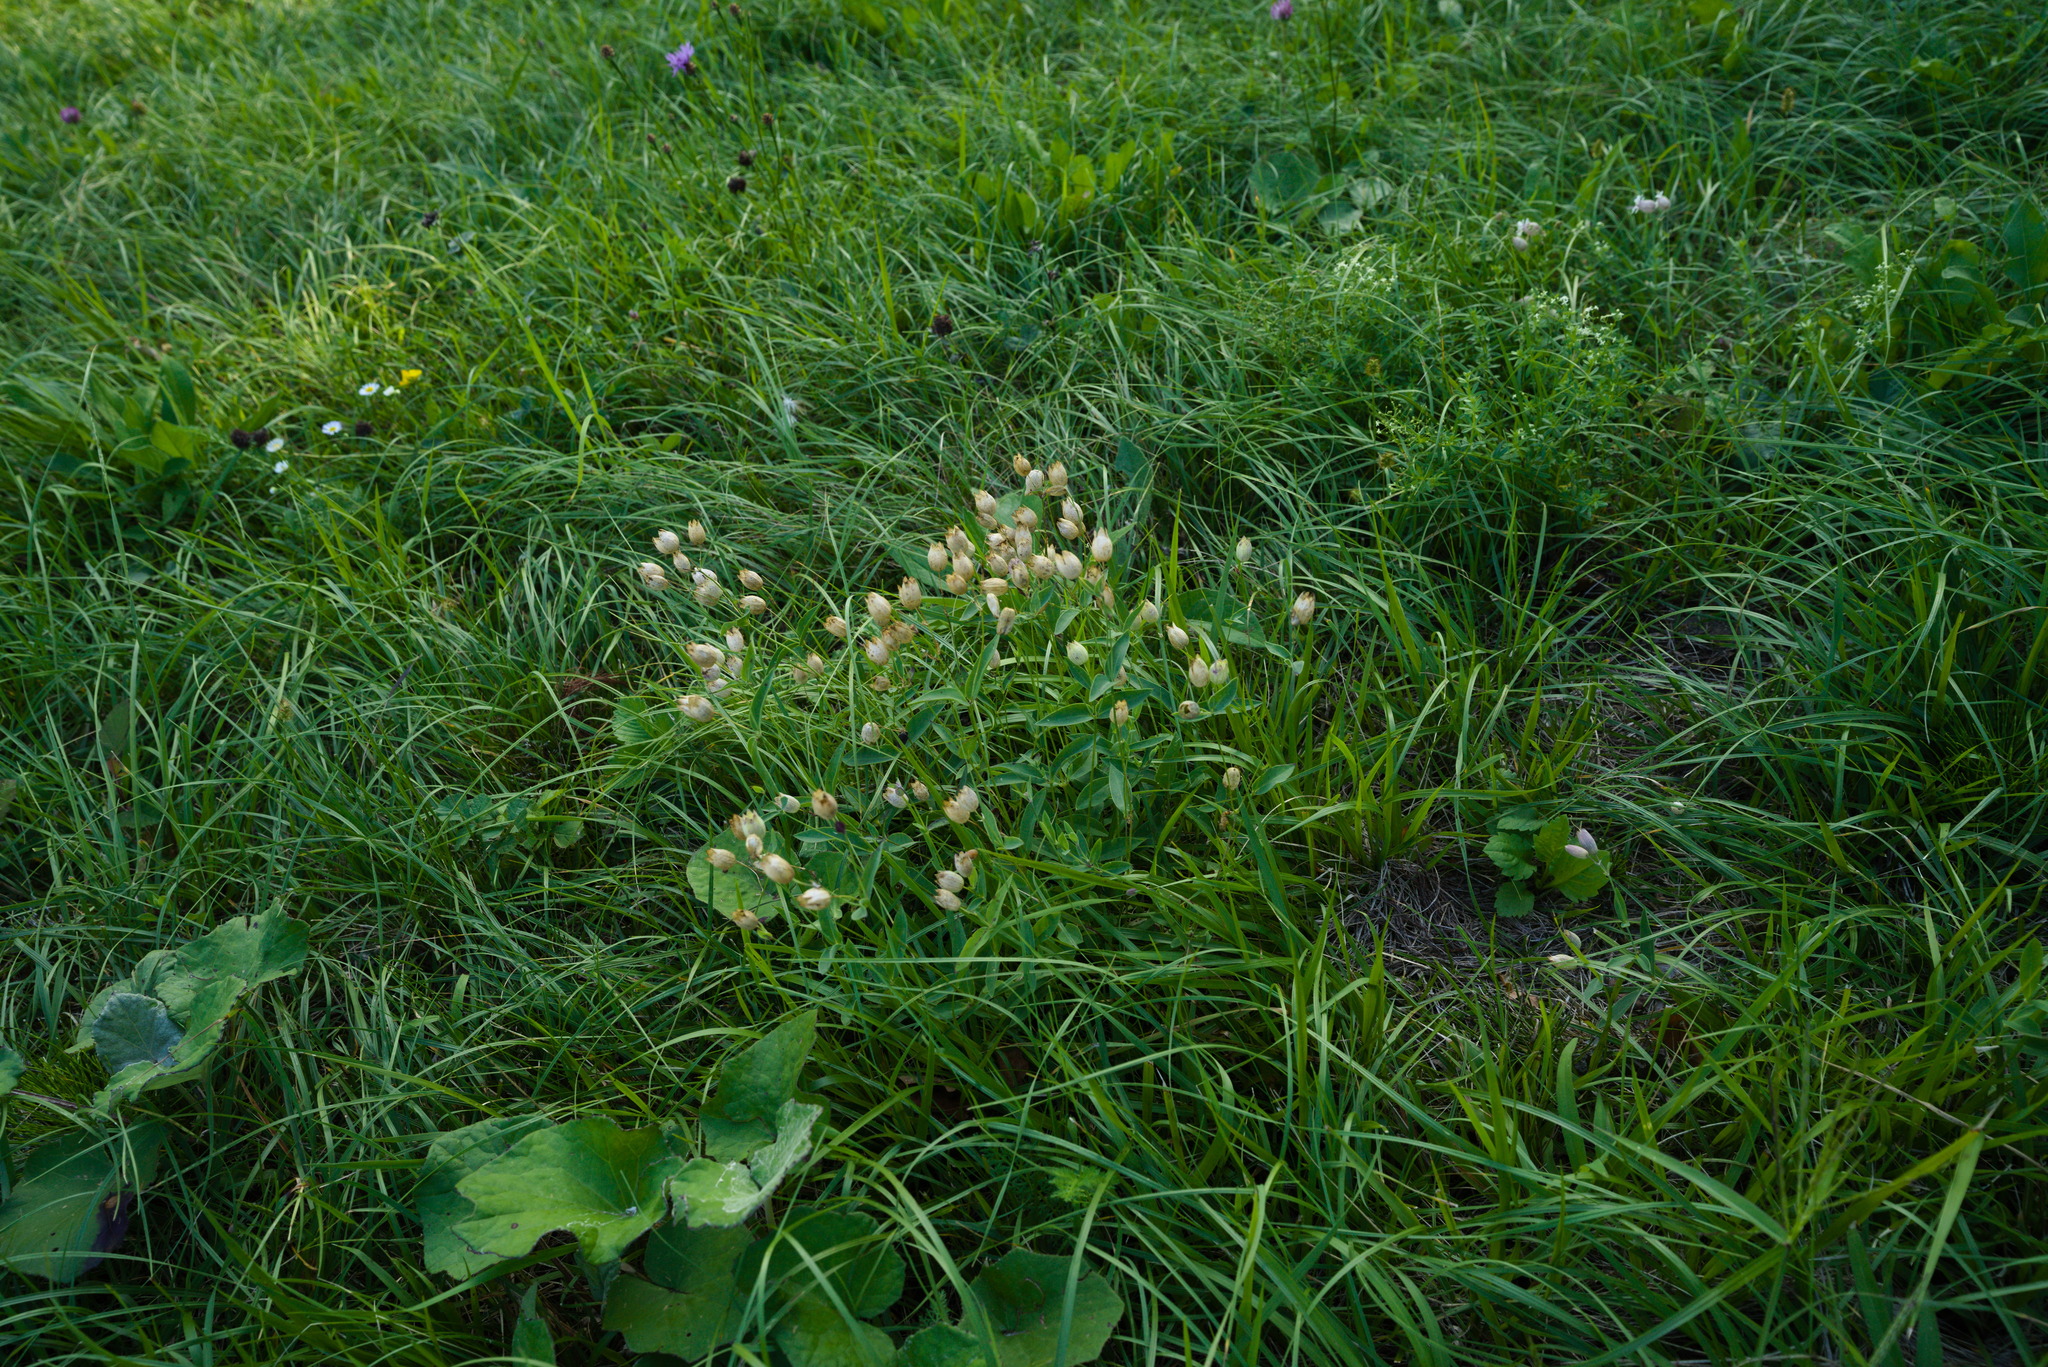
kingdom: Plantae
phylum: Tracheophyta
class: Magnoliopsida
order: Caryophyllales
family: Caryophyllaceae
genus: Silene
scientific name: Silene vulgaris
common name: Bladder campion
